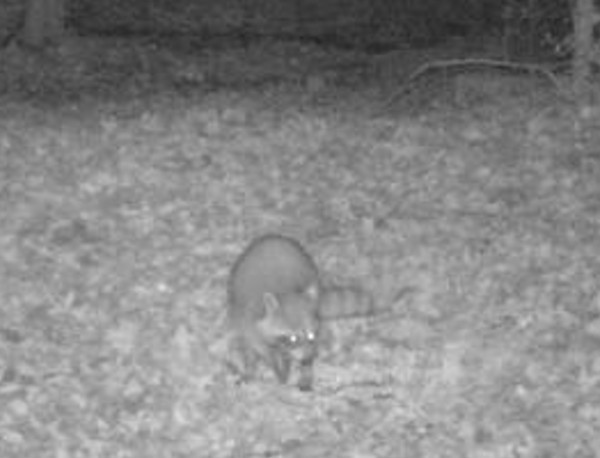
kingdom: Animalia
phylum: Chordata
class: Mammalia
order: Carnivora
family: Procyonidae
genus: Procyon
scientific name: Procyon lotor
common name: Raccoon
